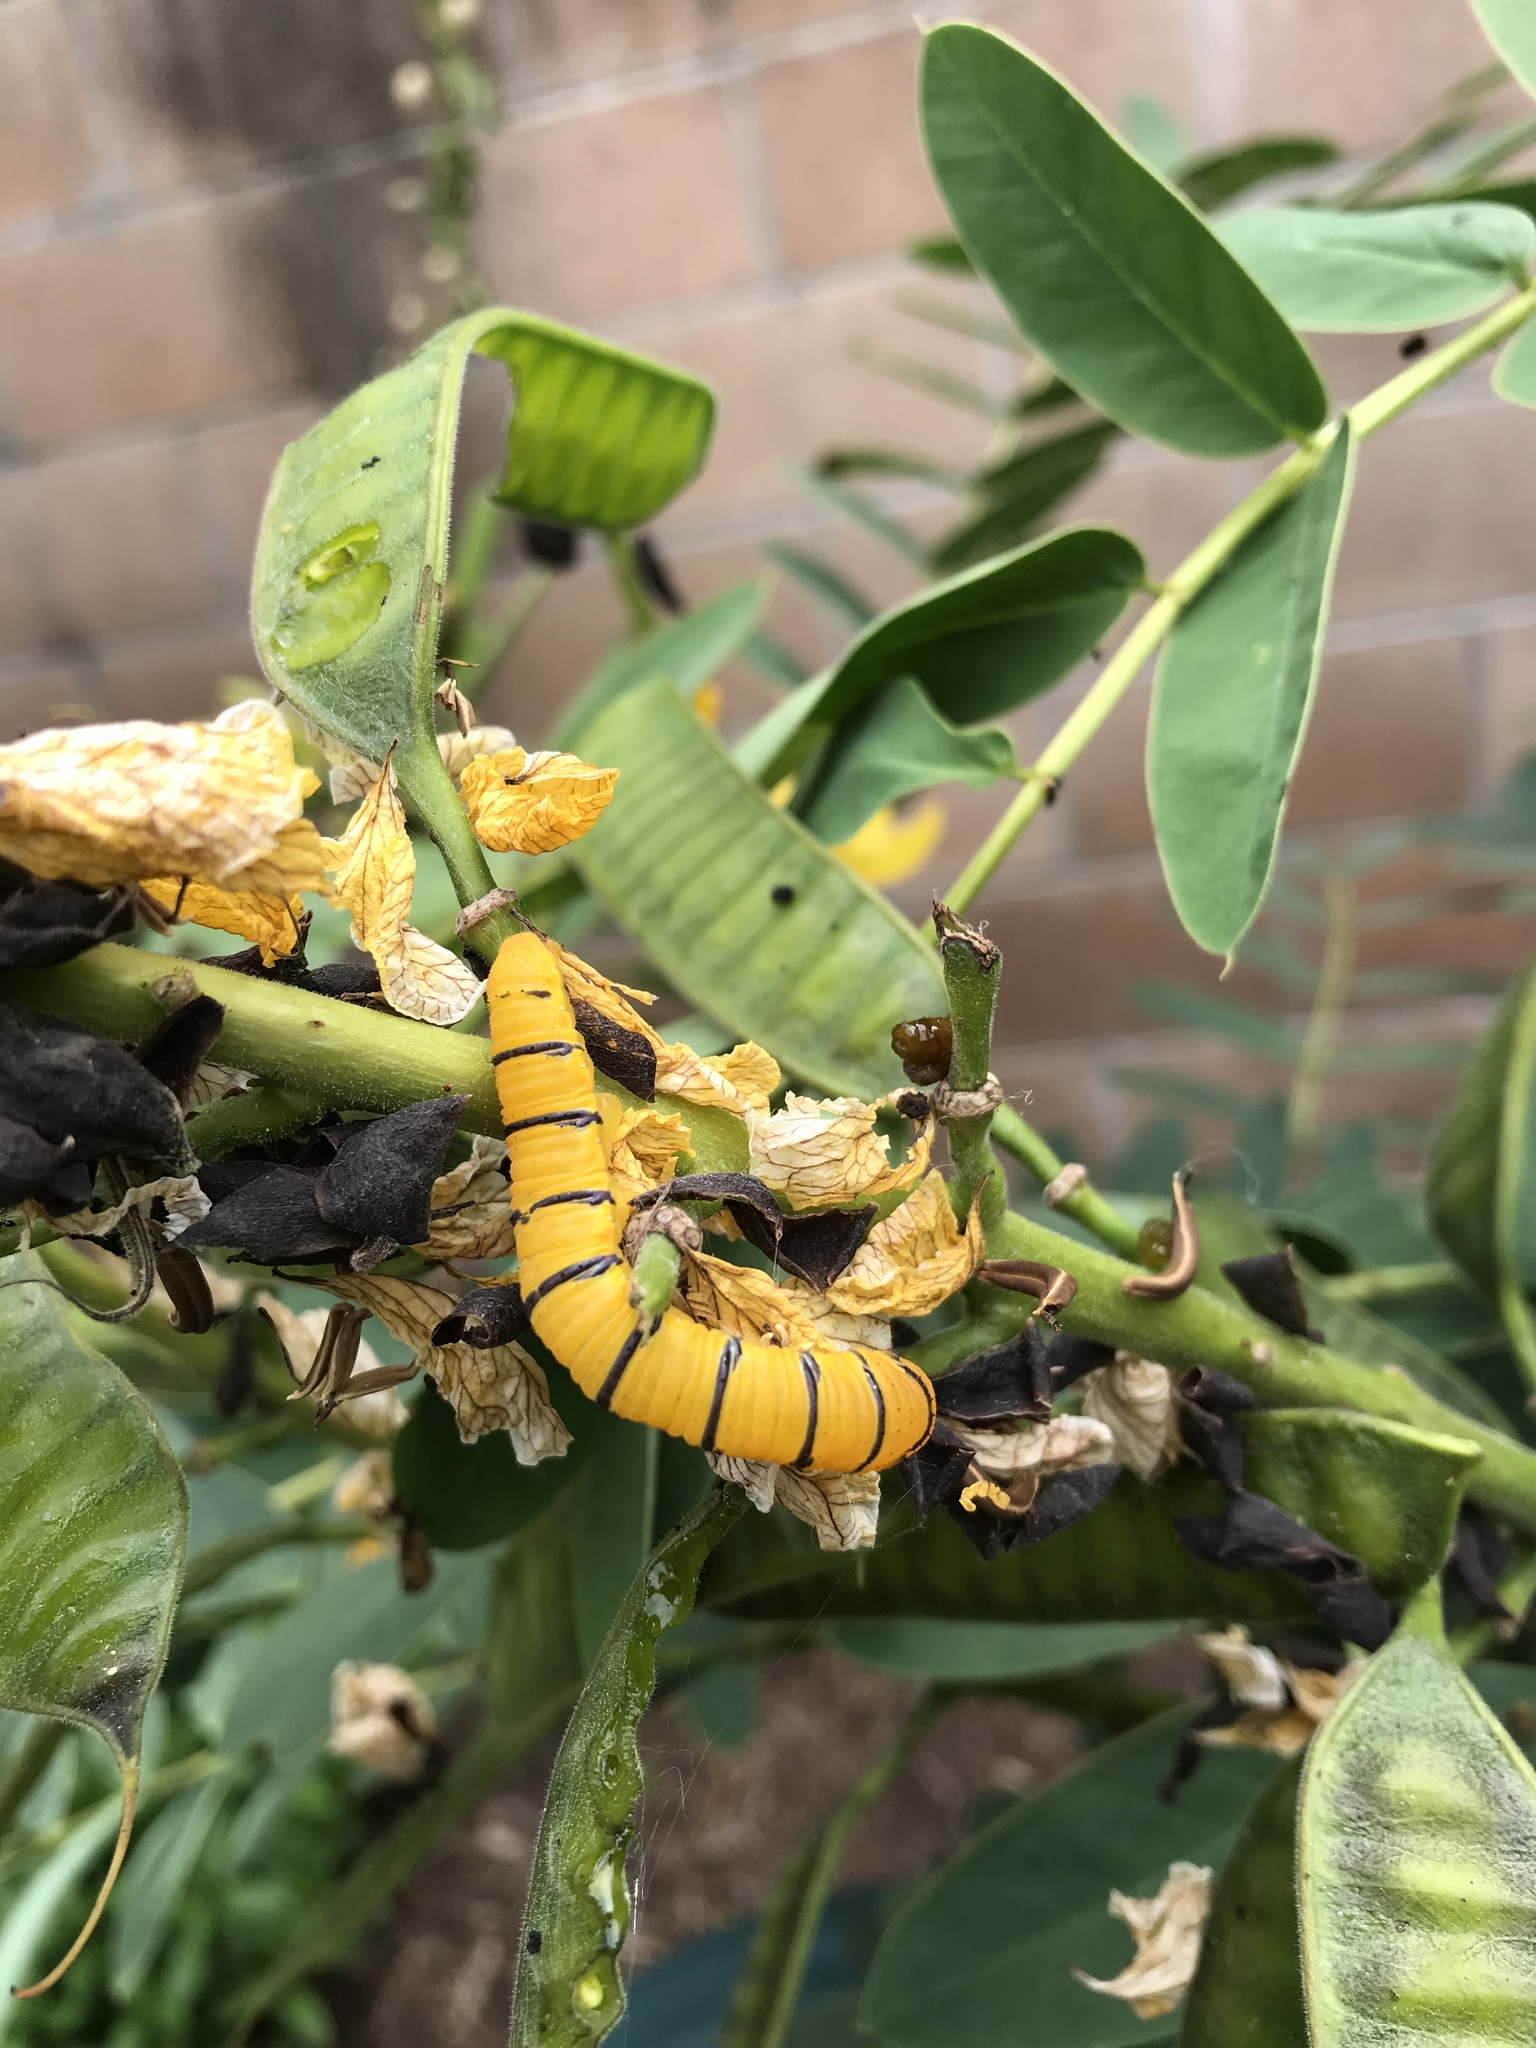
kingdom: Animalia
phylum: Arthropoda
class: Insecta
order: Lepidoptera
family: Pieridae
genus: Phoebis
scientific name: Phoebis sennae
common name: Cloudless sulphur
